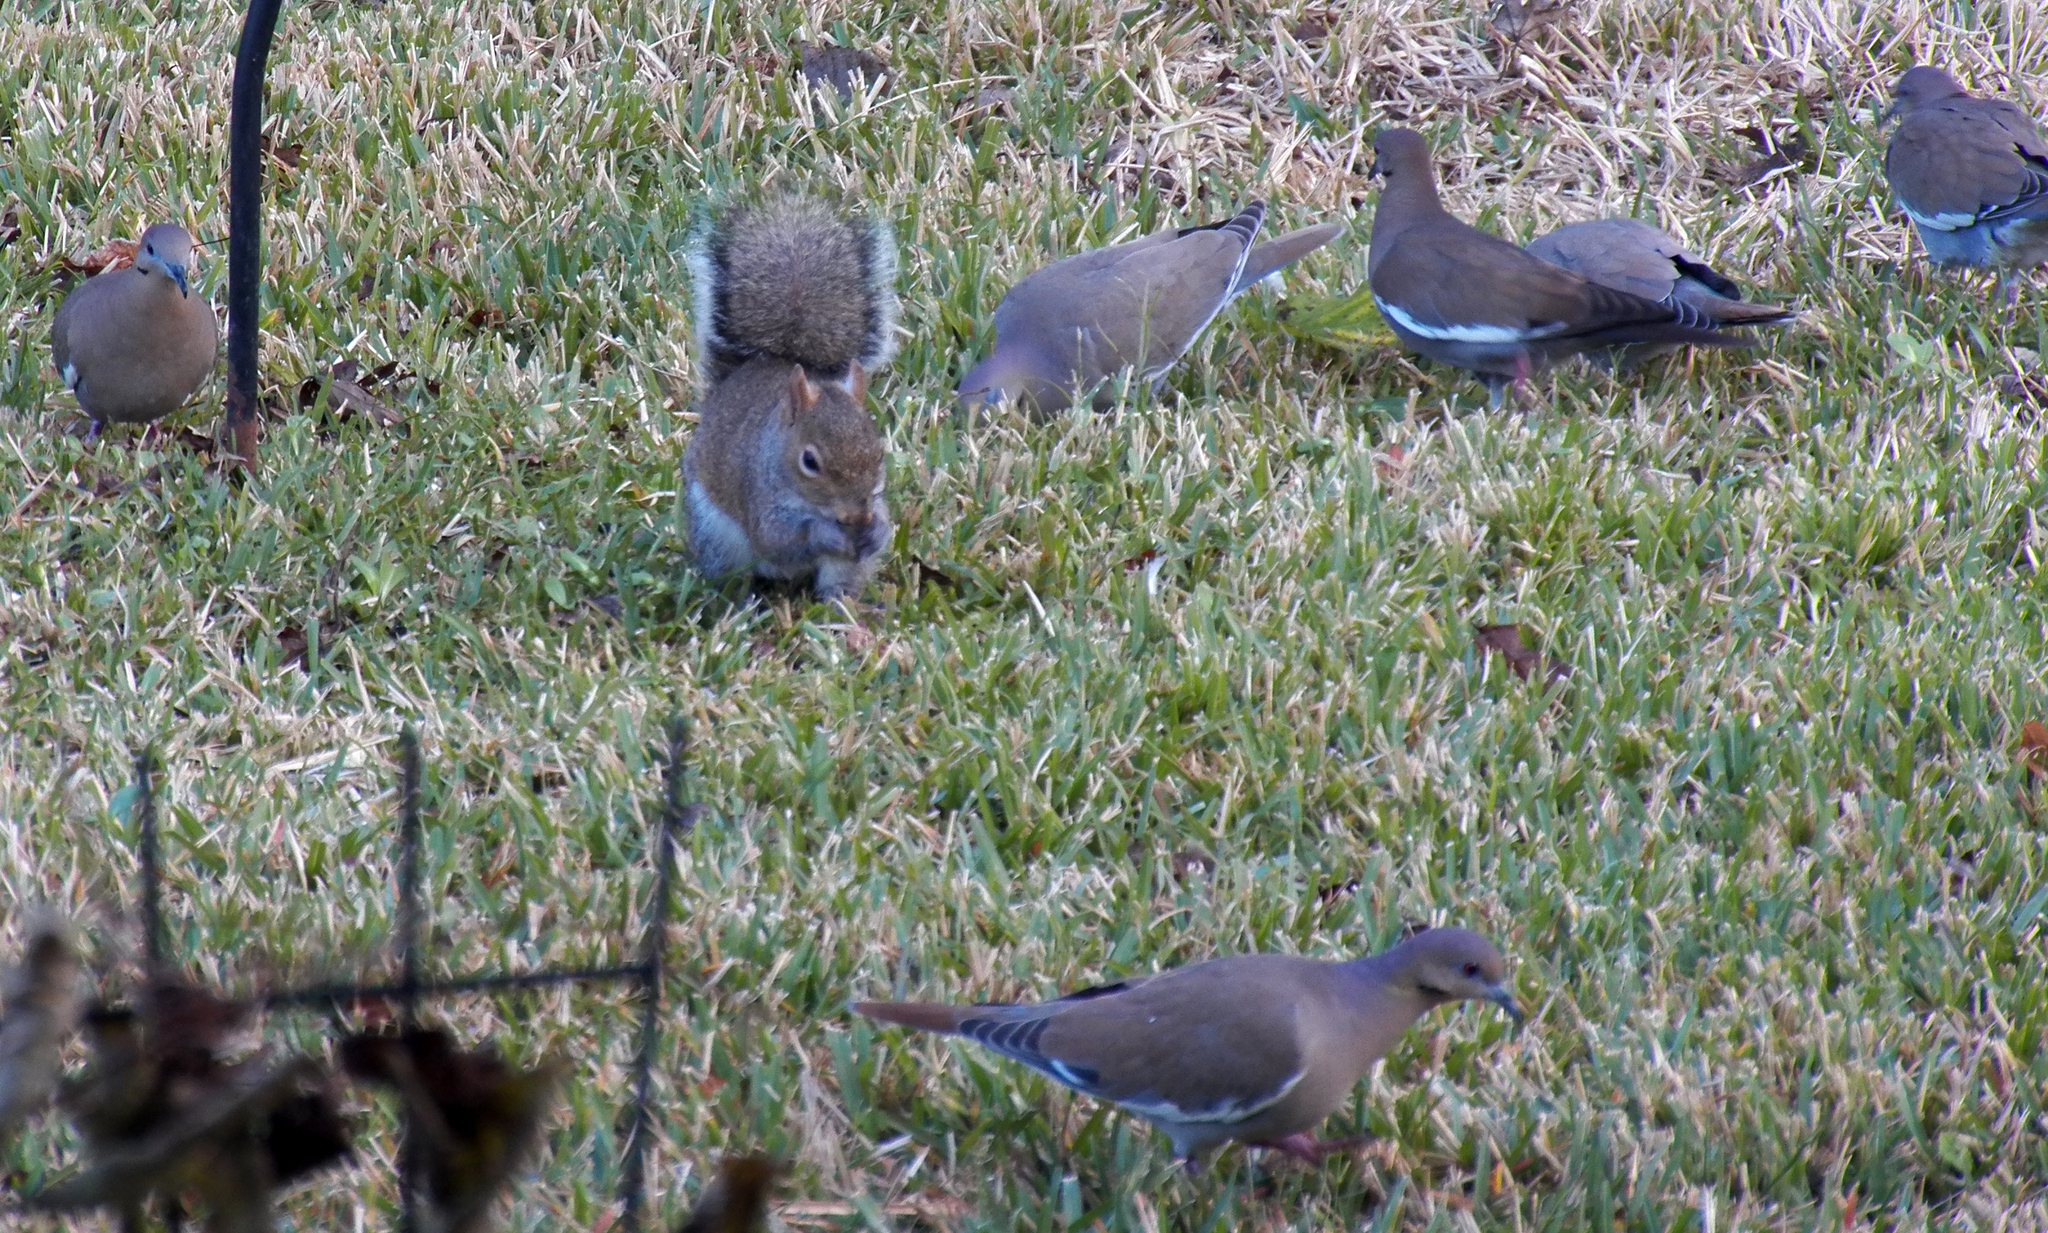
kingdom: Animalia
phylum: Chordata
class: Aves
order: Columbiformes
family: Columbidae
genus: Zenaida
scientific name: Zenaida asiatica
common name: White-winged dove
